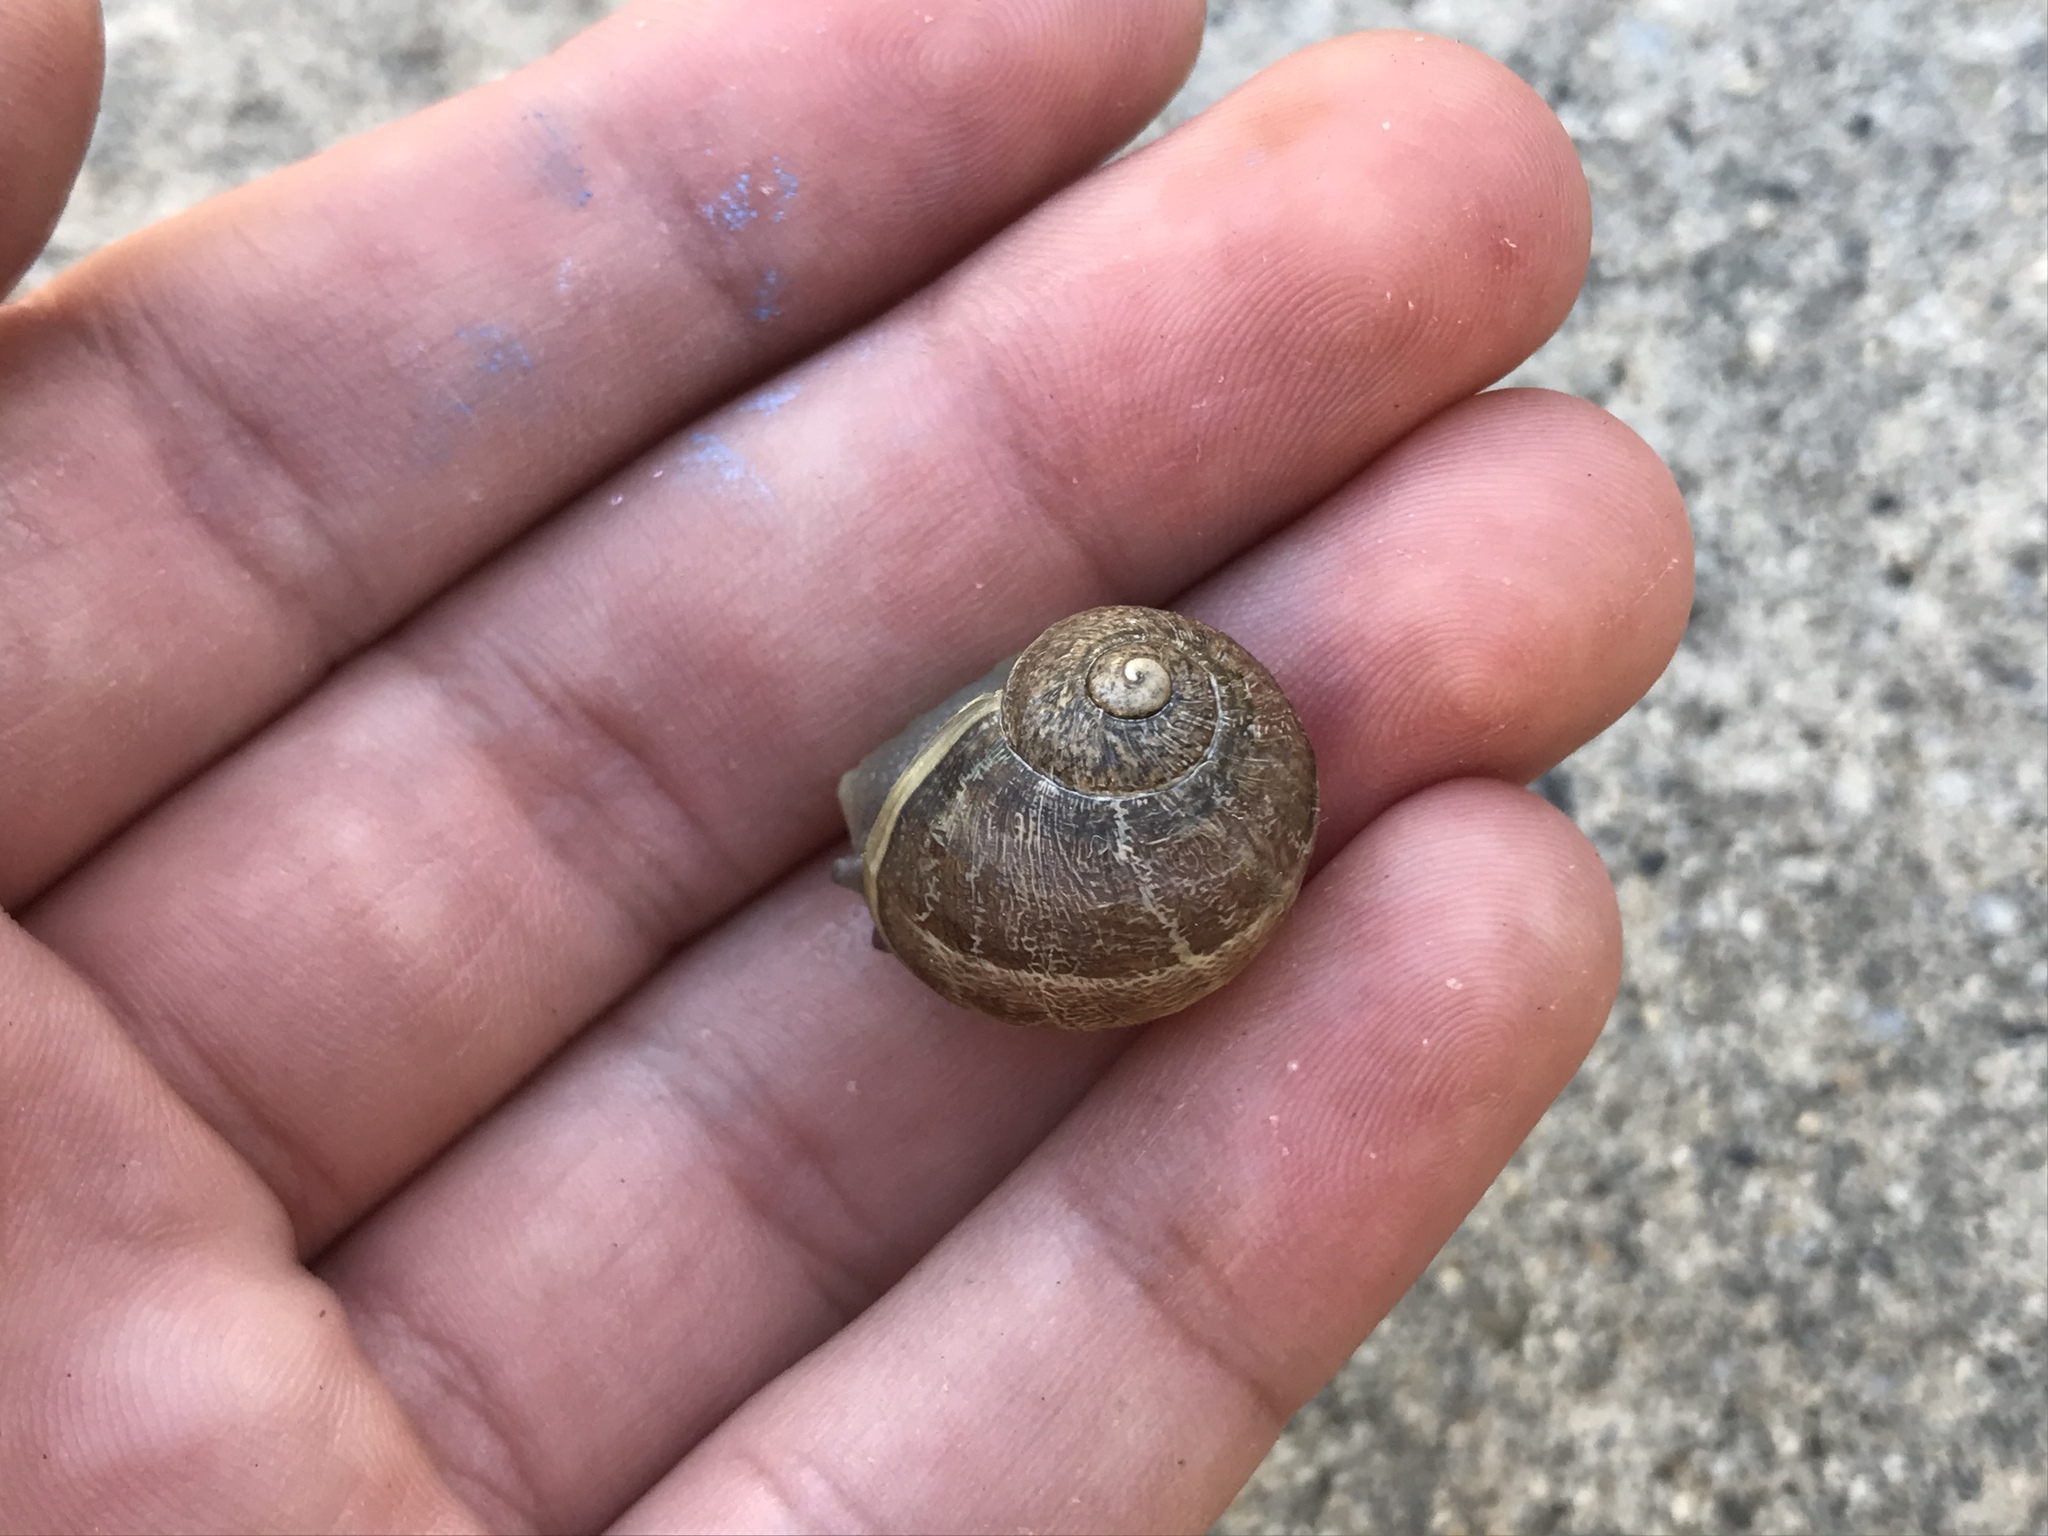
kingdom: Animalia
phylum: Mollusca
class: Gastropoda
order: Stylommatophora
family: Helicidae
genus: Cornu
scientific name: Cornu aspersum
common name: Brown garden snail
